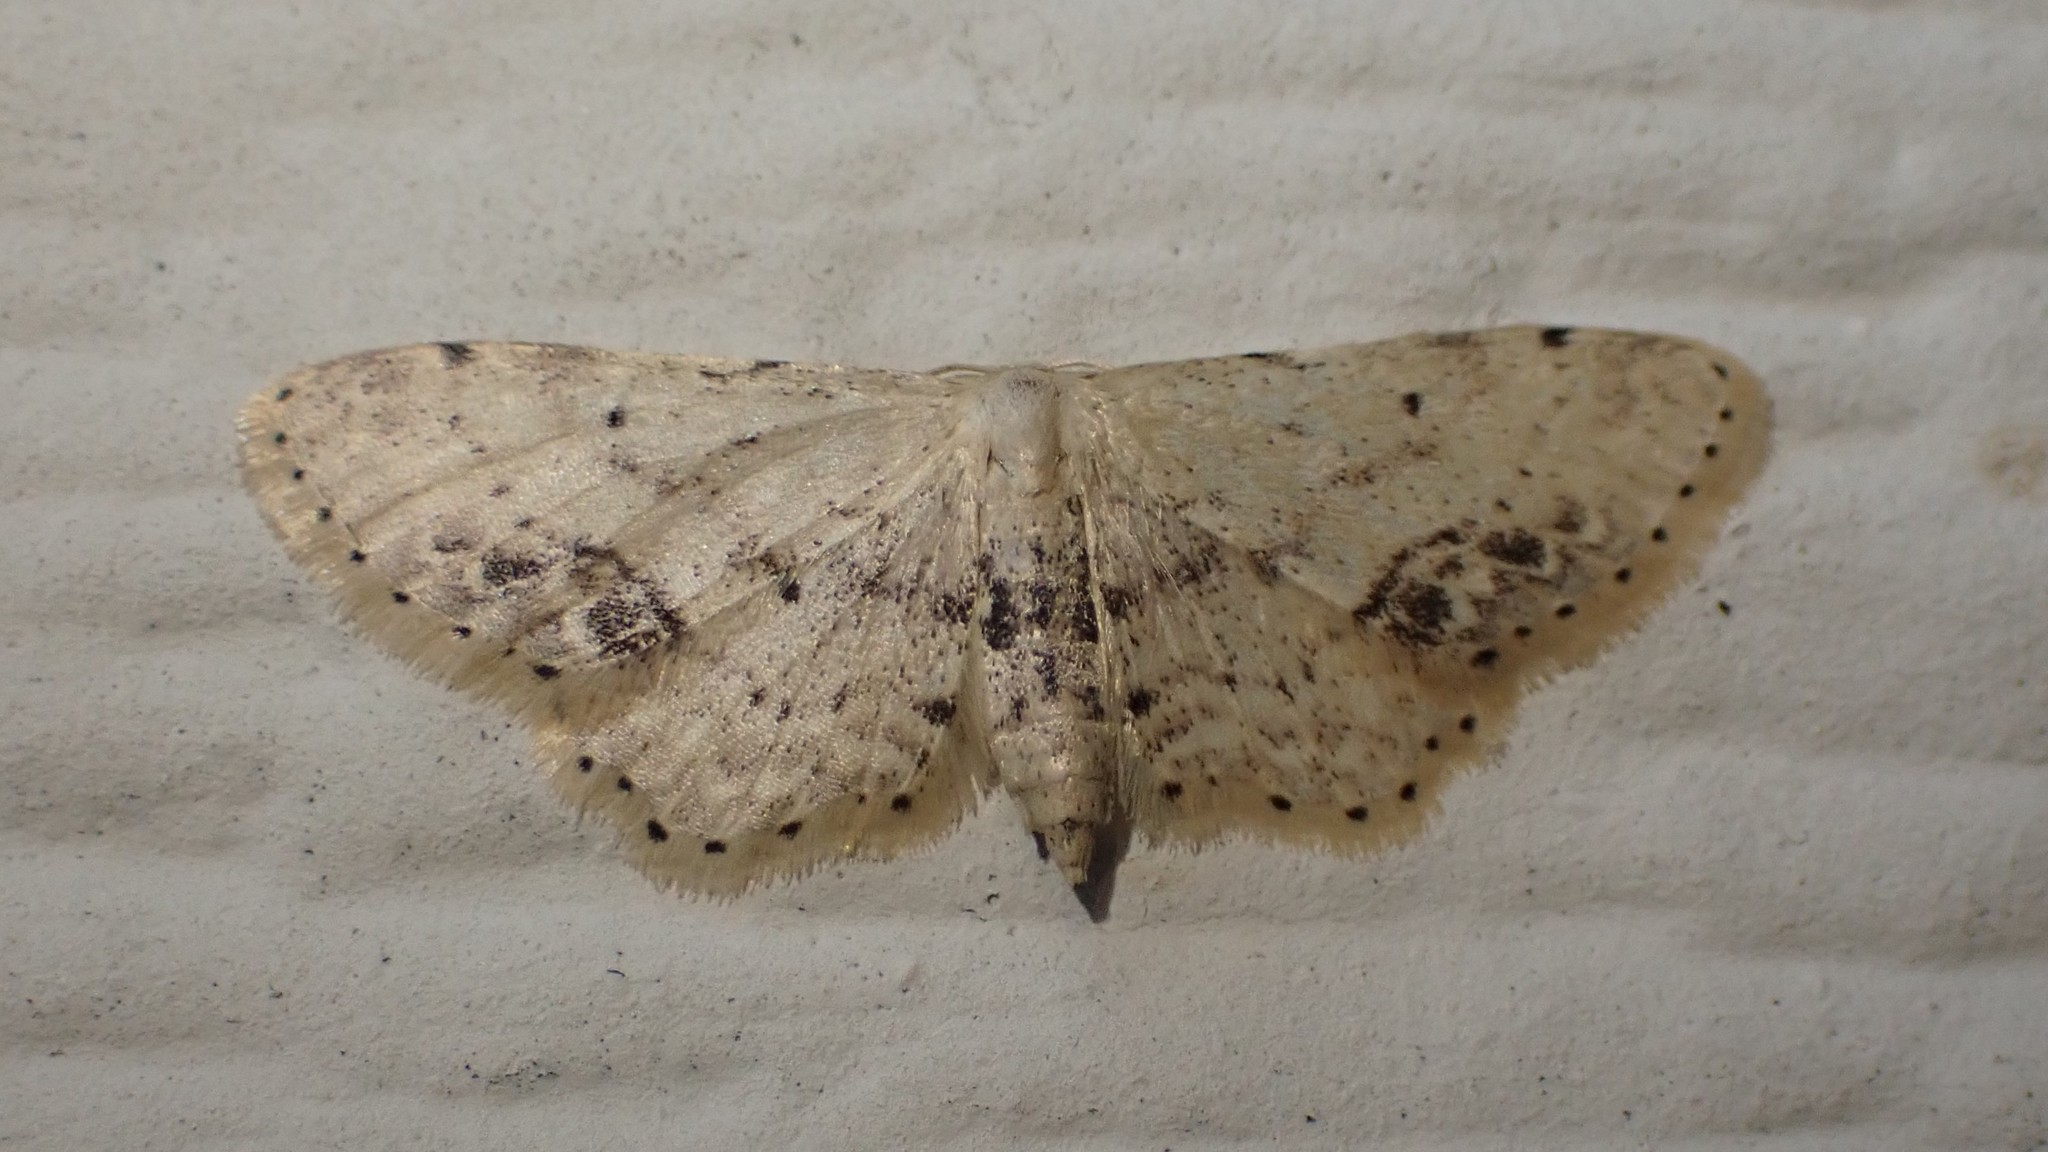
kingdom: Animalia
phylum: Arthropoda
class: Insecta
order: Lepidoptera
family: Geometridae
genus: Idaea
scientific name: Idaea dimidiata
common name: Single-dotted wave
